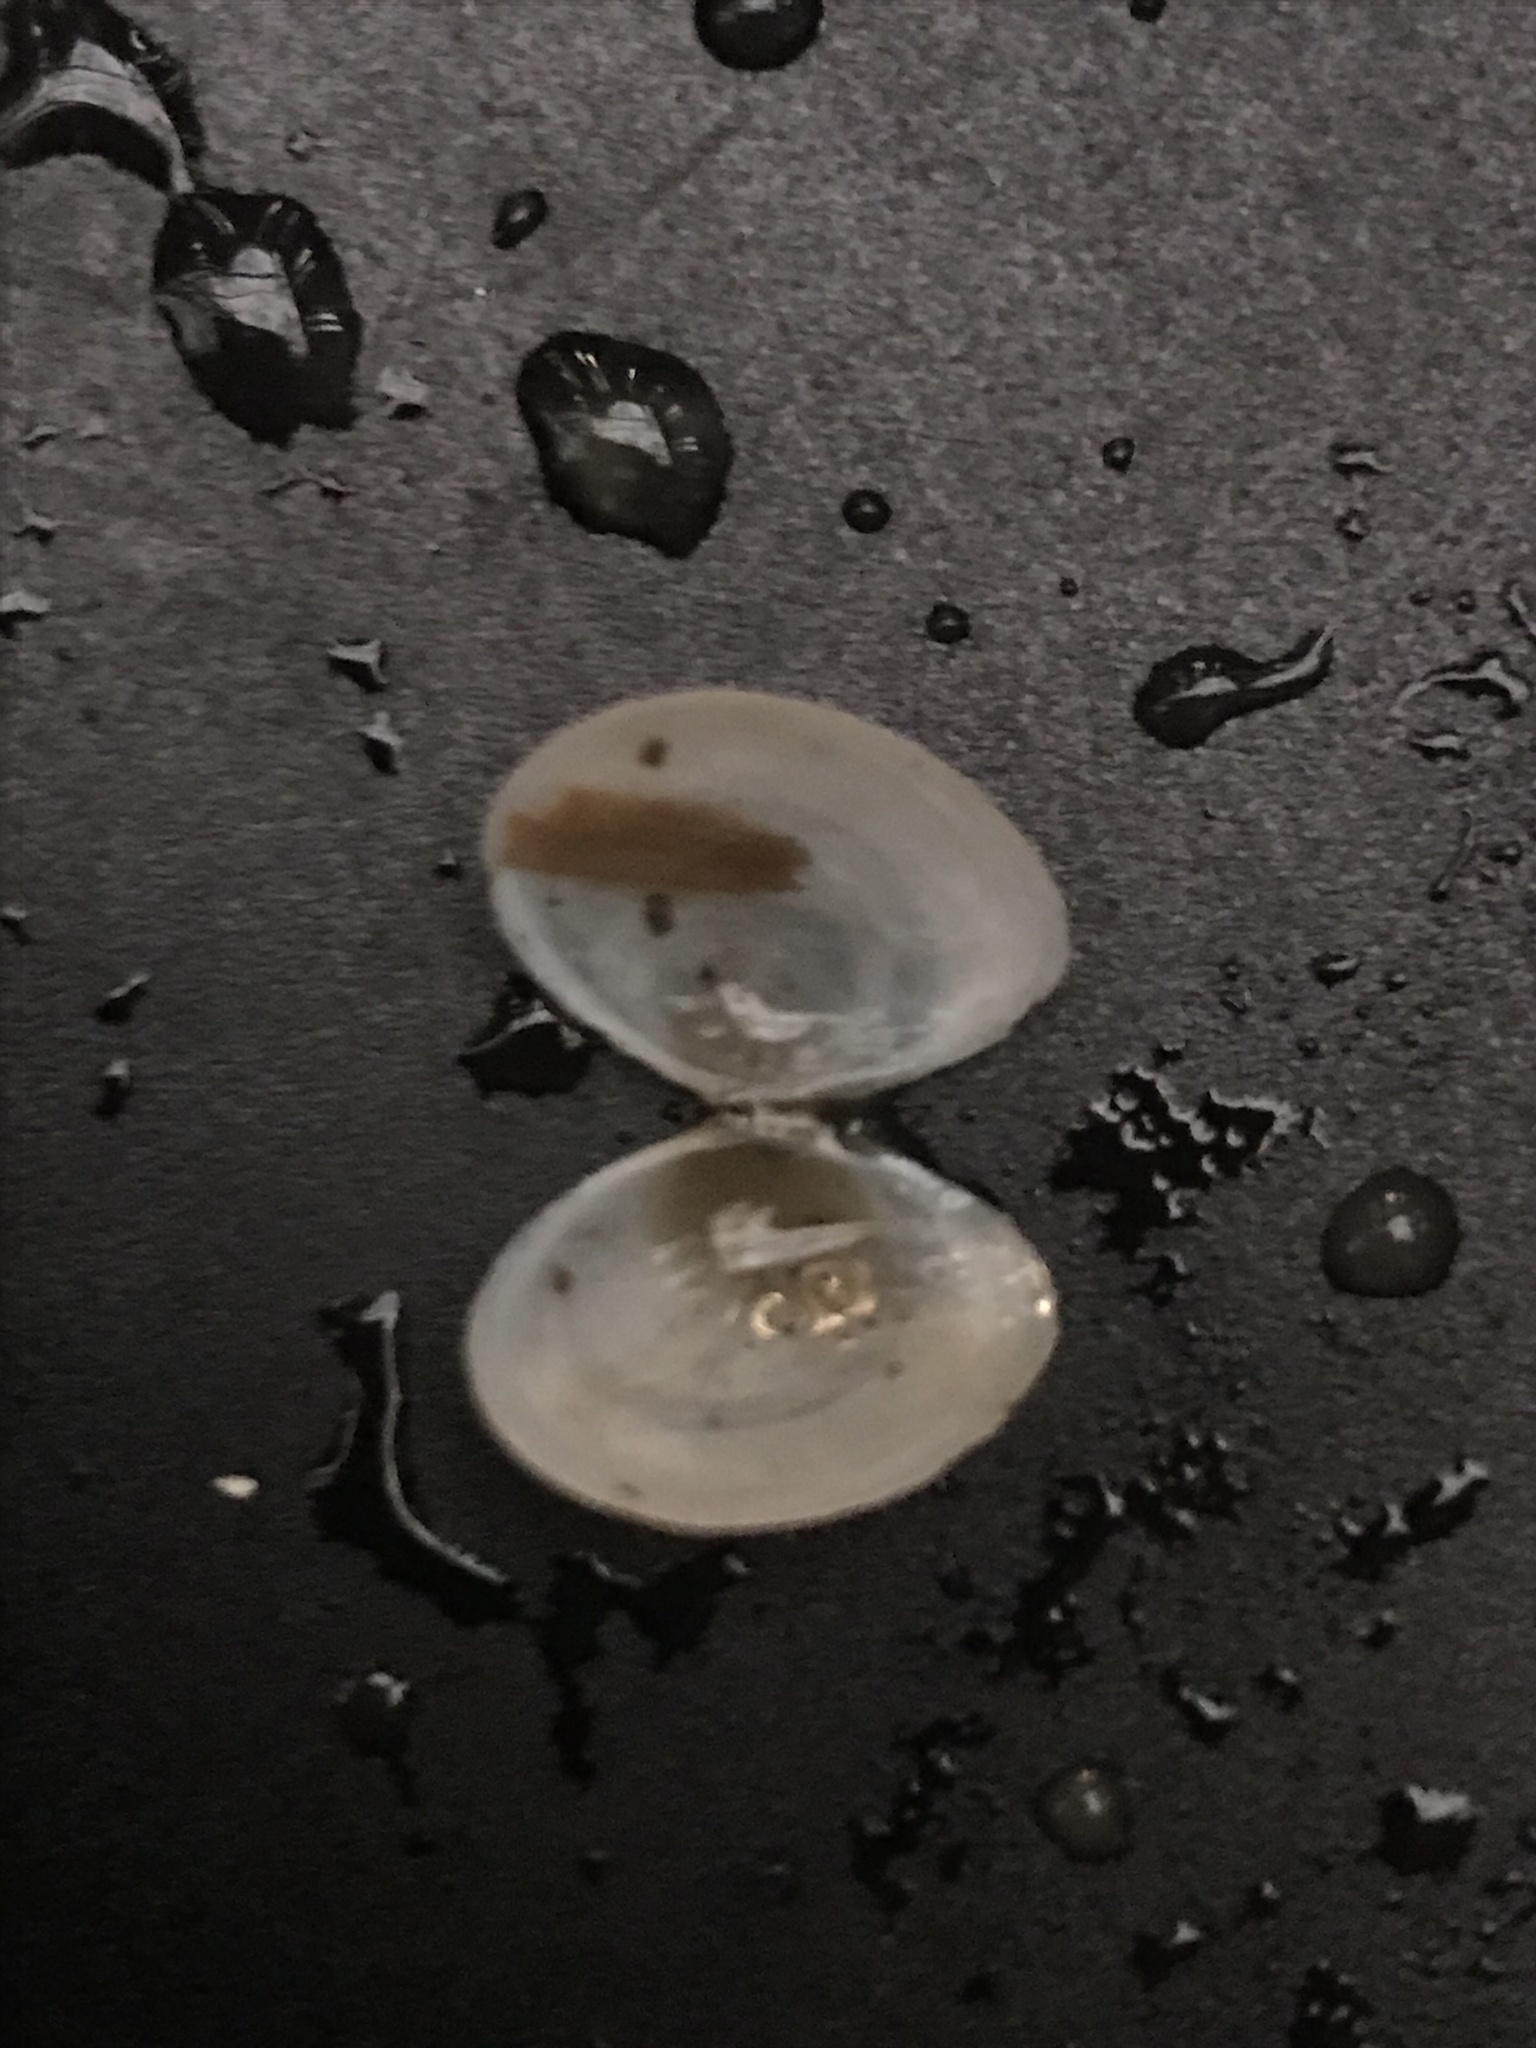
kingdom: Animalia
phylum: Mollusca
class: Bivalvia
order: Cardiida
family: Tellinidae
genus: Macoma
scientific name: Macoma petalum
